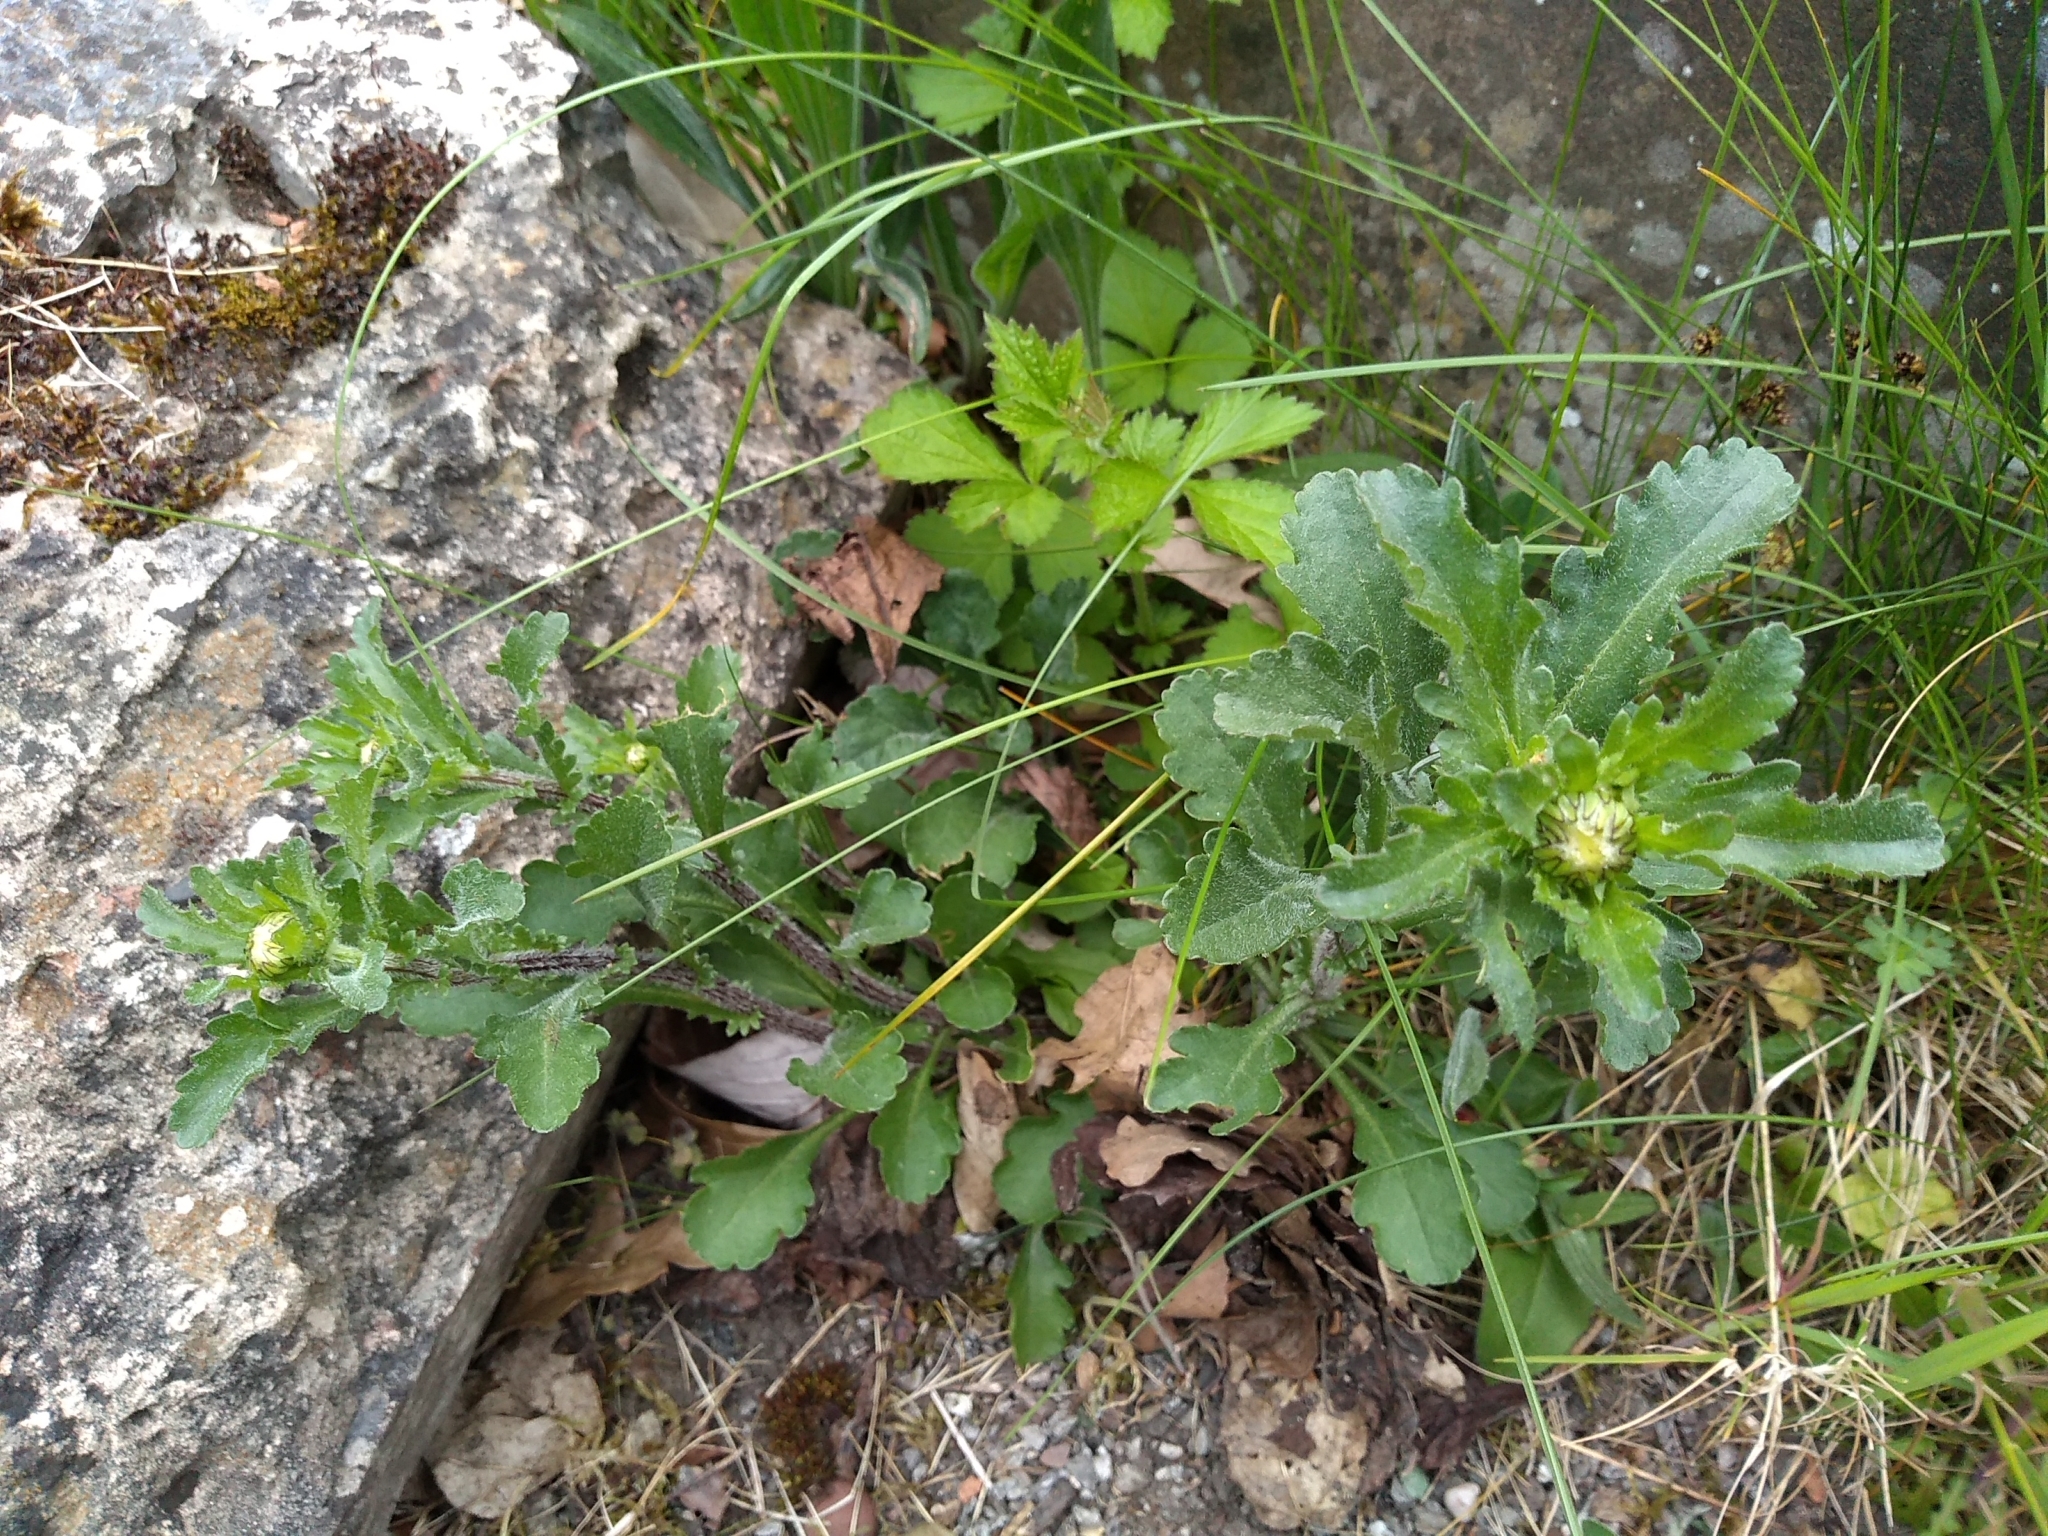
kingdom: Plantae
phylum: Tracheophyta
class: Magnoliopsida
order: Asterales
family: Asteraceae
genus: Leucanthemum
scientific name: Leucanthemum vulgare
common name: Oxeye daisy
